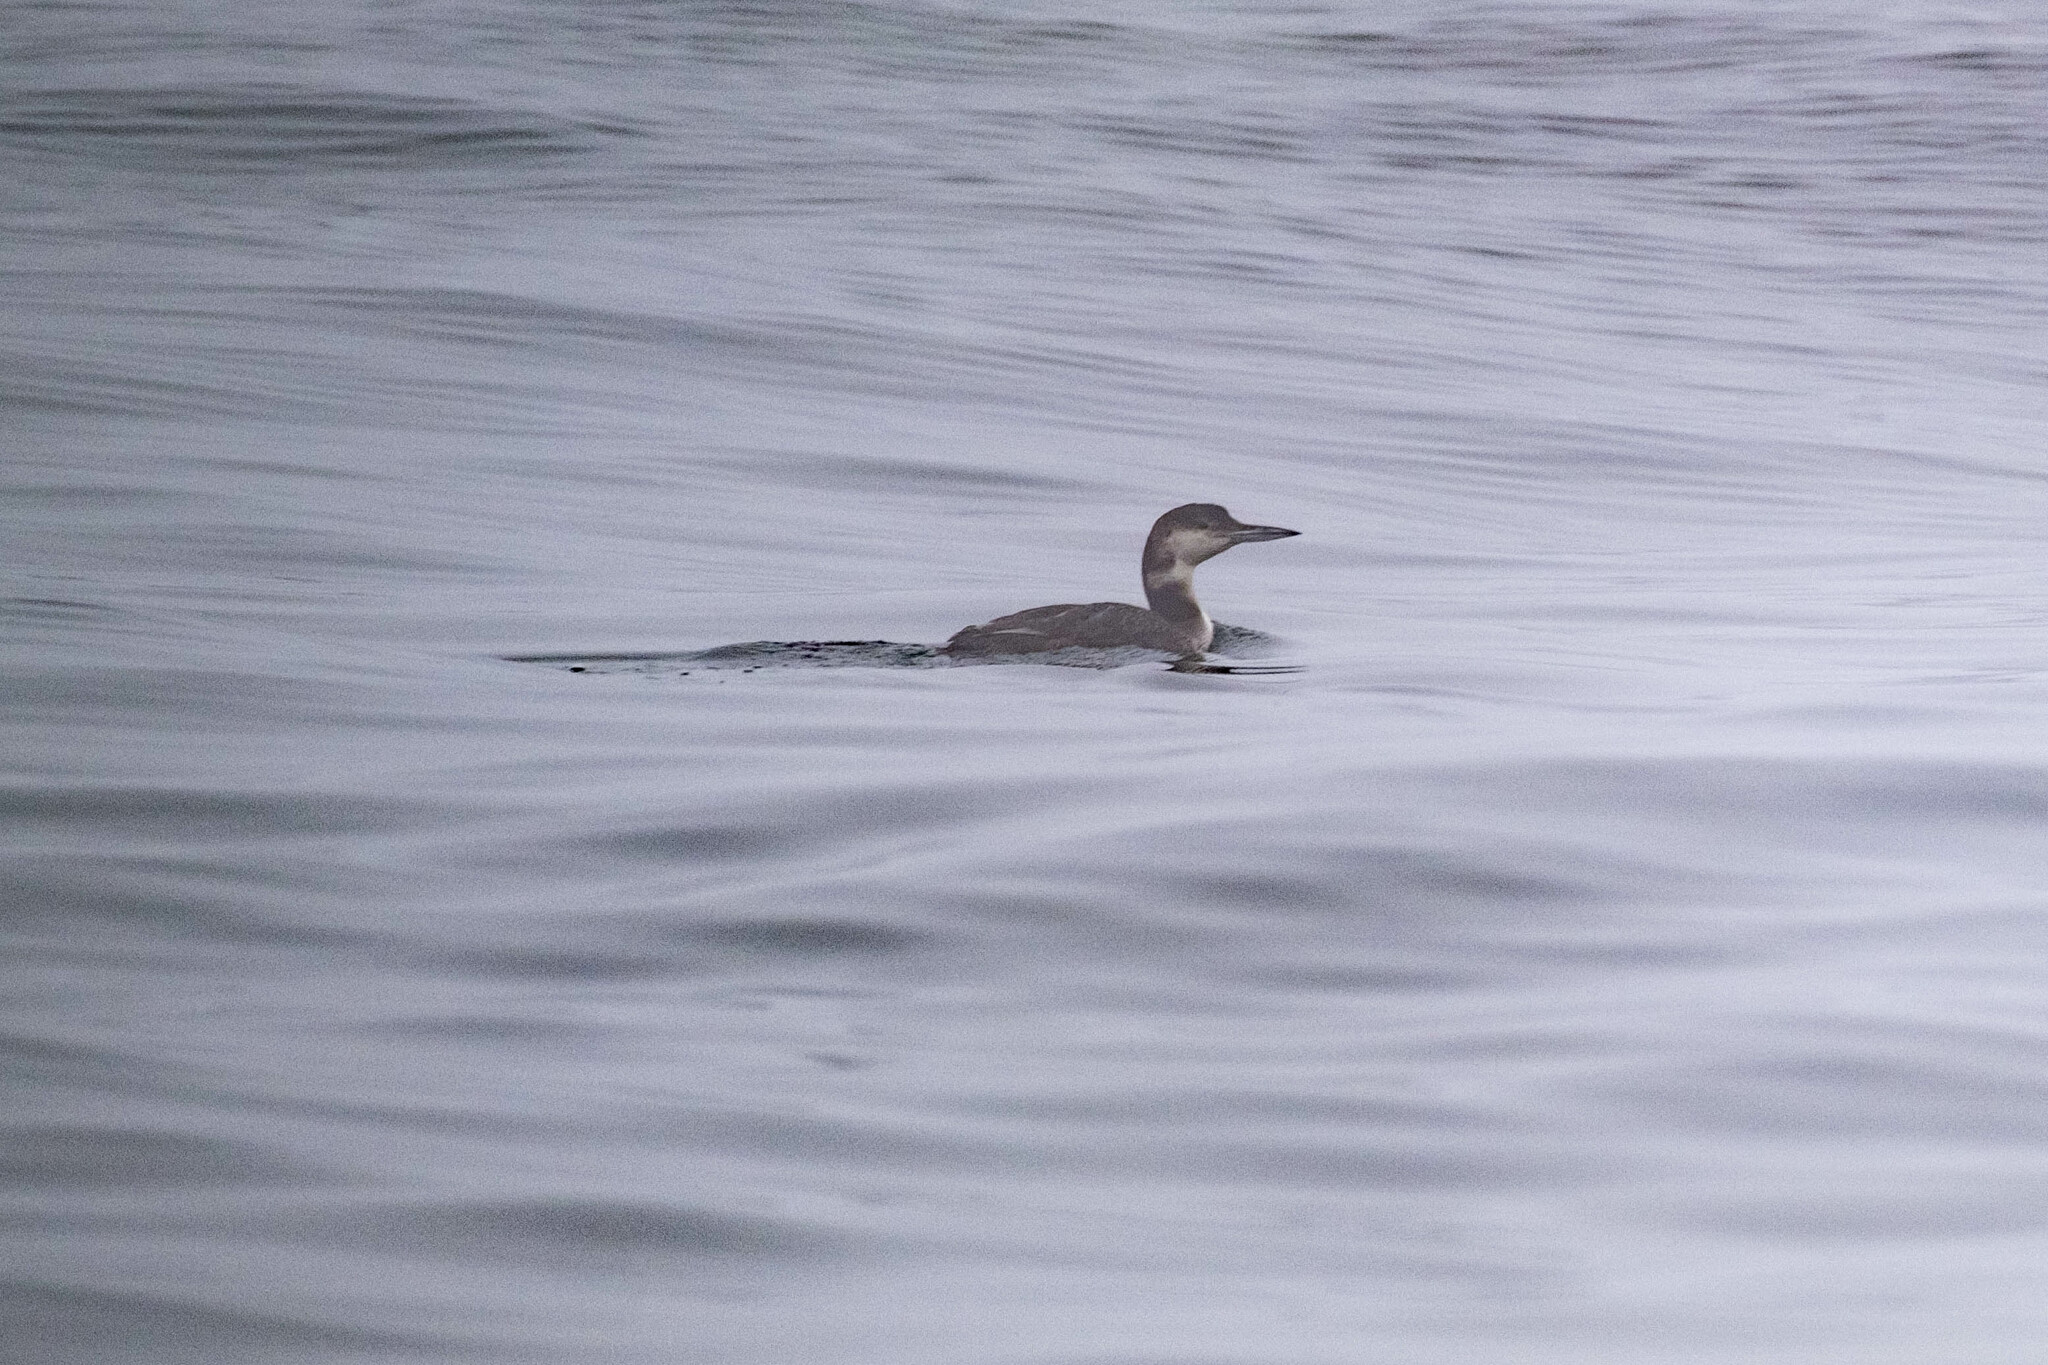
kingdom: Animalia
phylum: Chordata
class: Aves
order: Gaviiformes
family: Gaviidae
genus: Gavia
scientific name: Gavia immer
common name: Common loon
